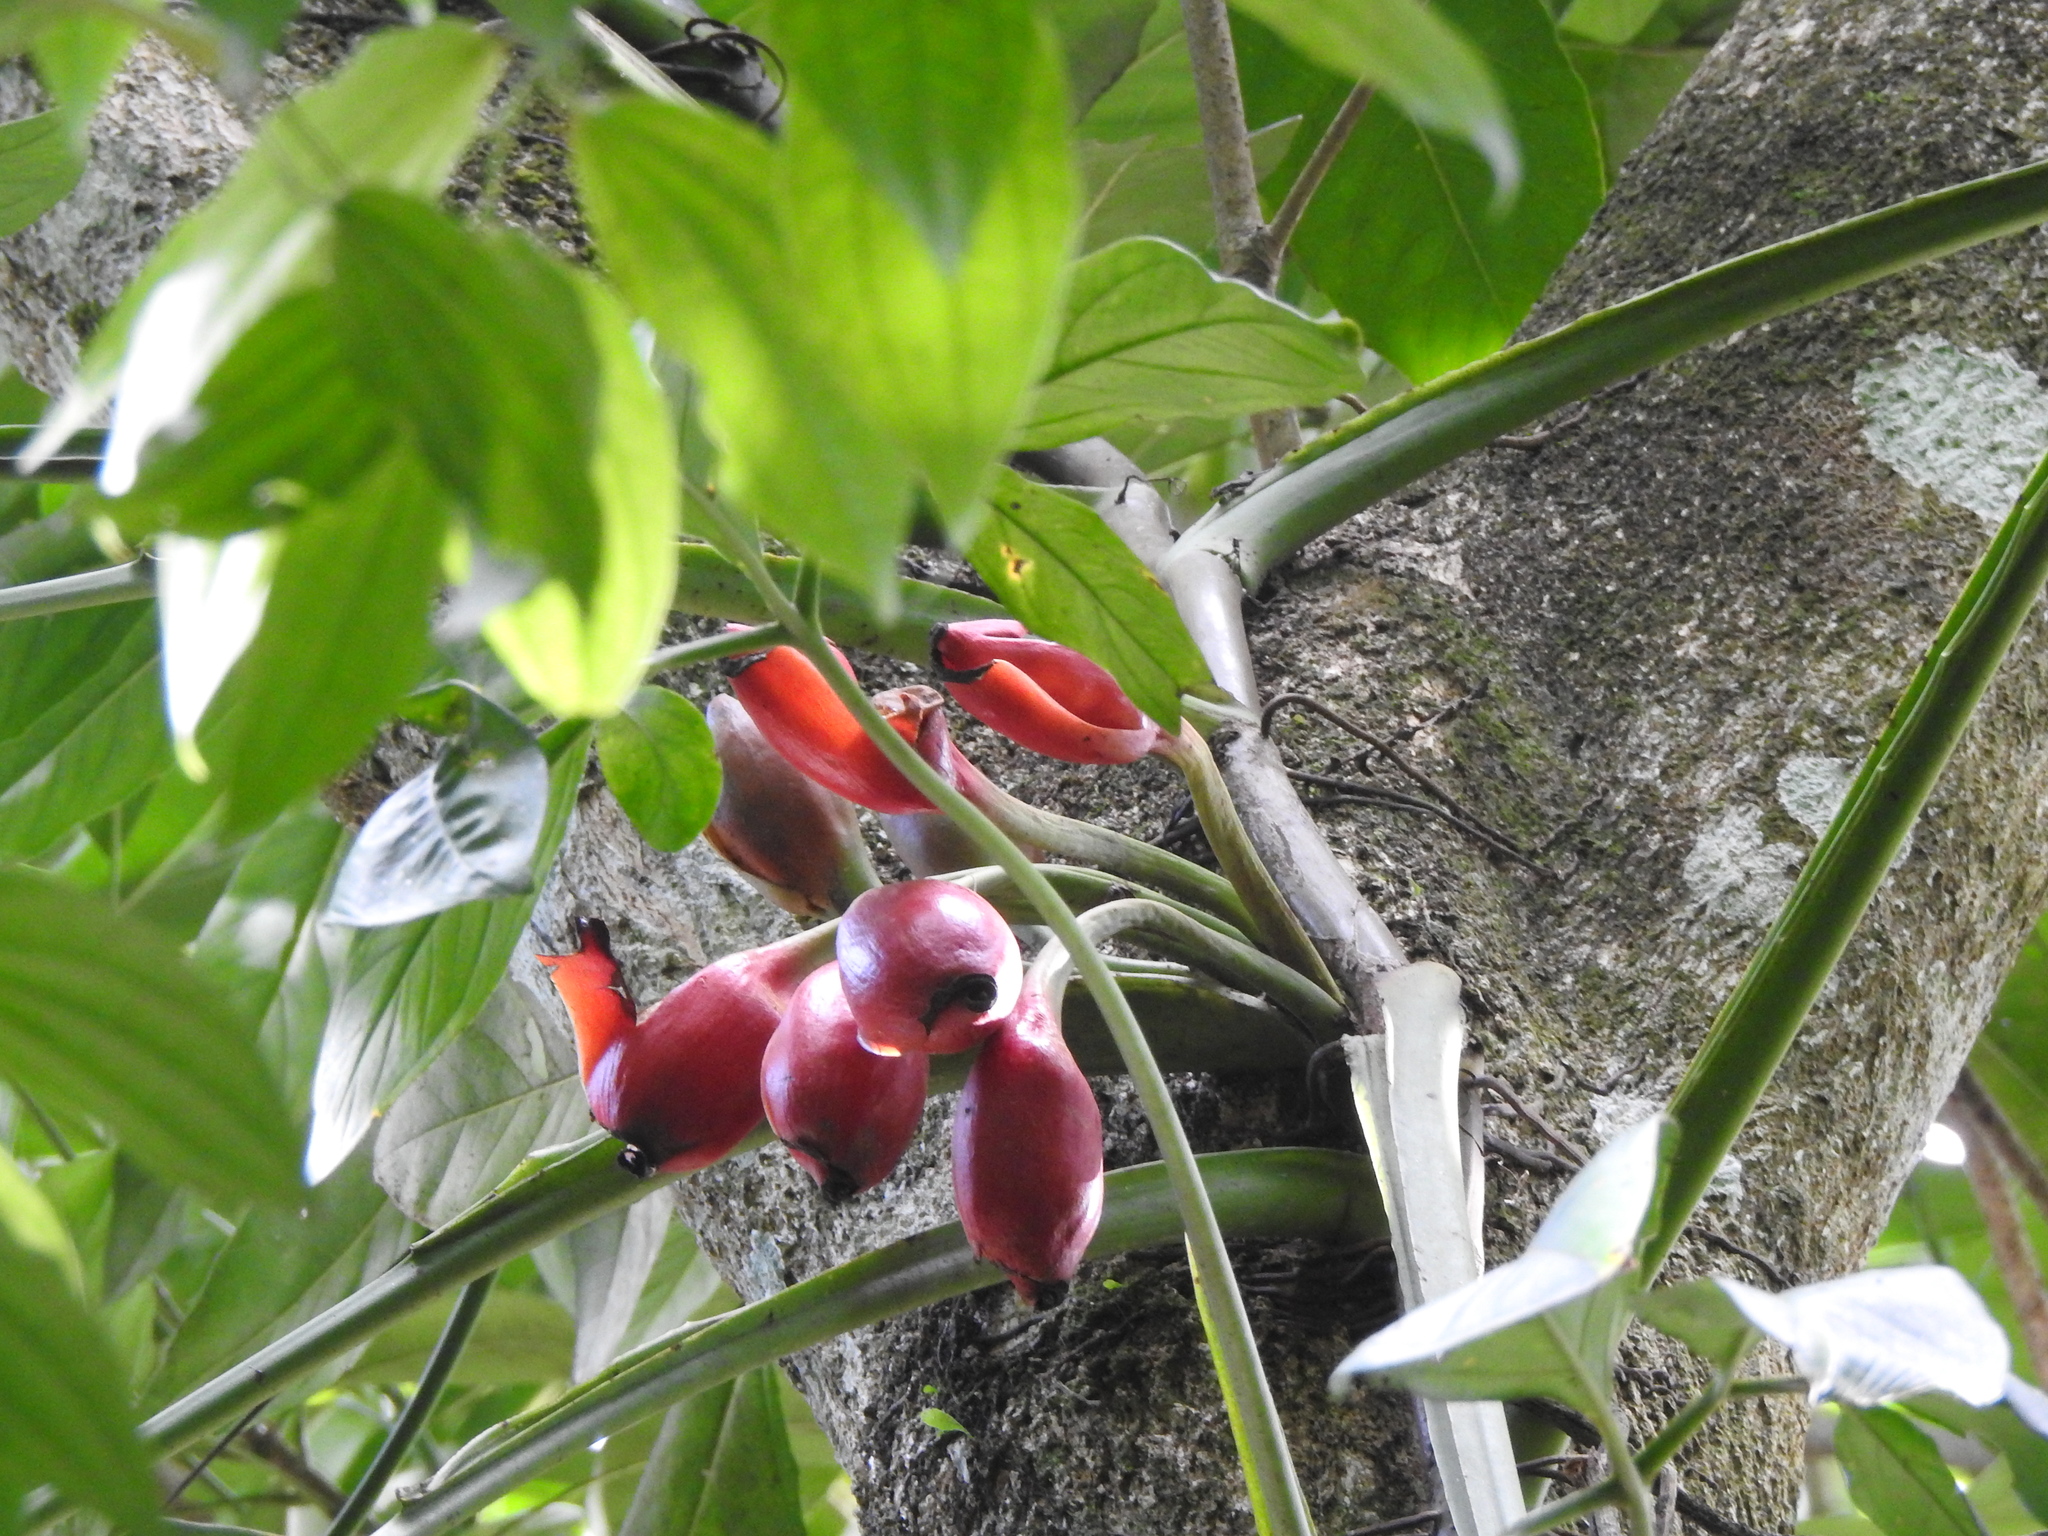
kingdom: Plantae
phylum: Tracheophyta
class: Liliopsida
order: Alismatales
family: Araceae
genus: Syngonium
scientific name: Syngonium podophyllum
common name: American evergreen
